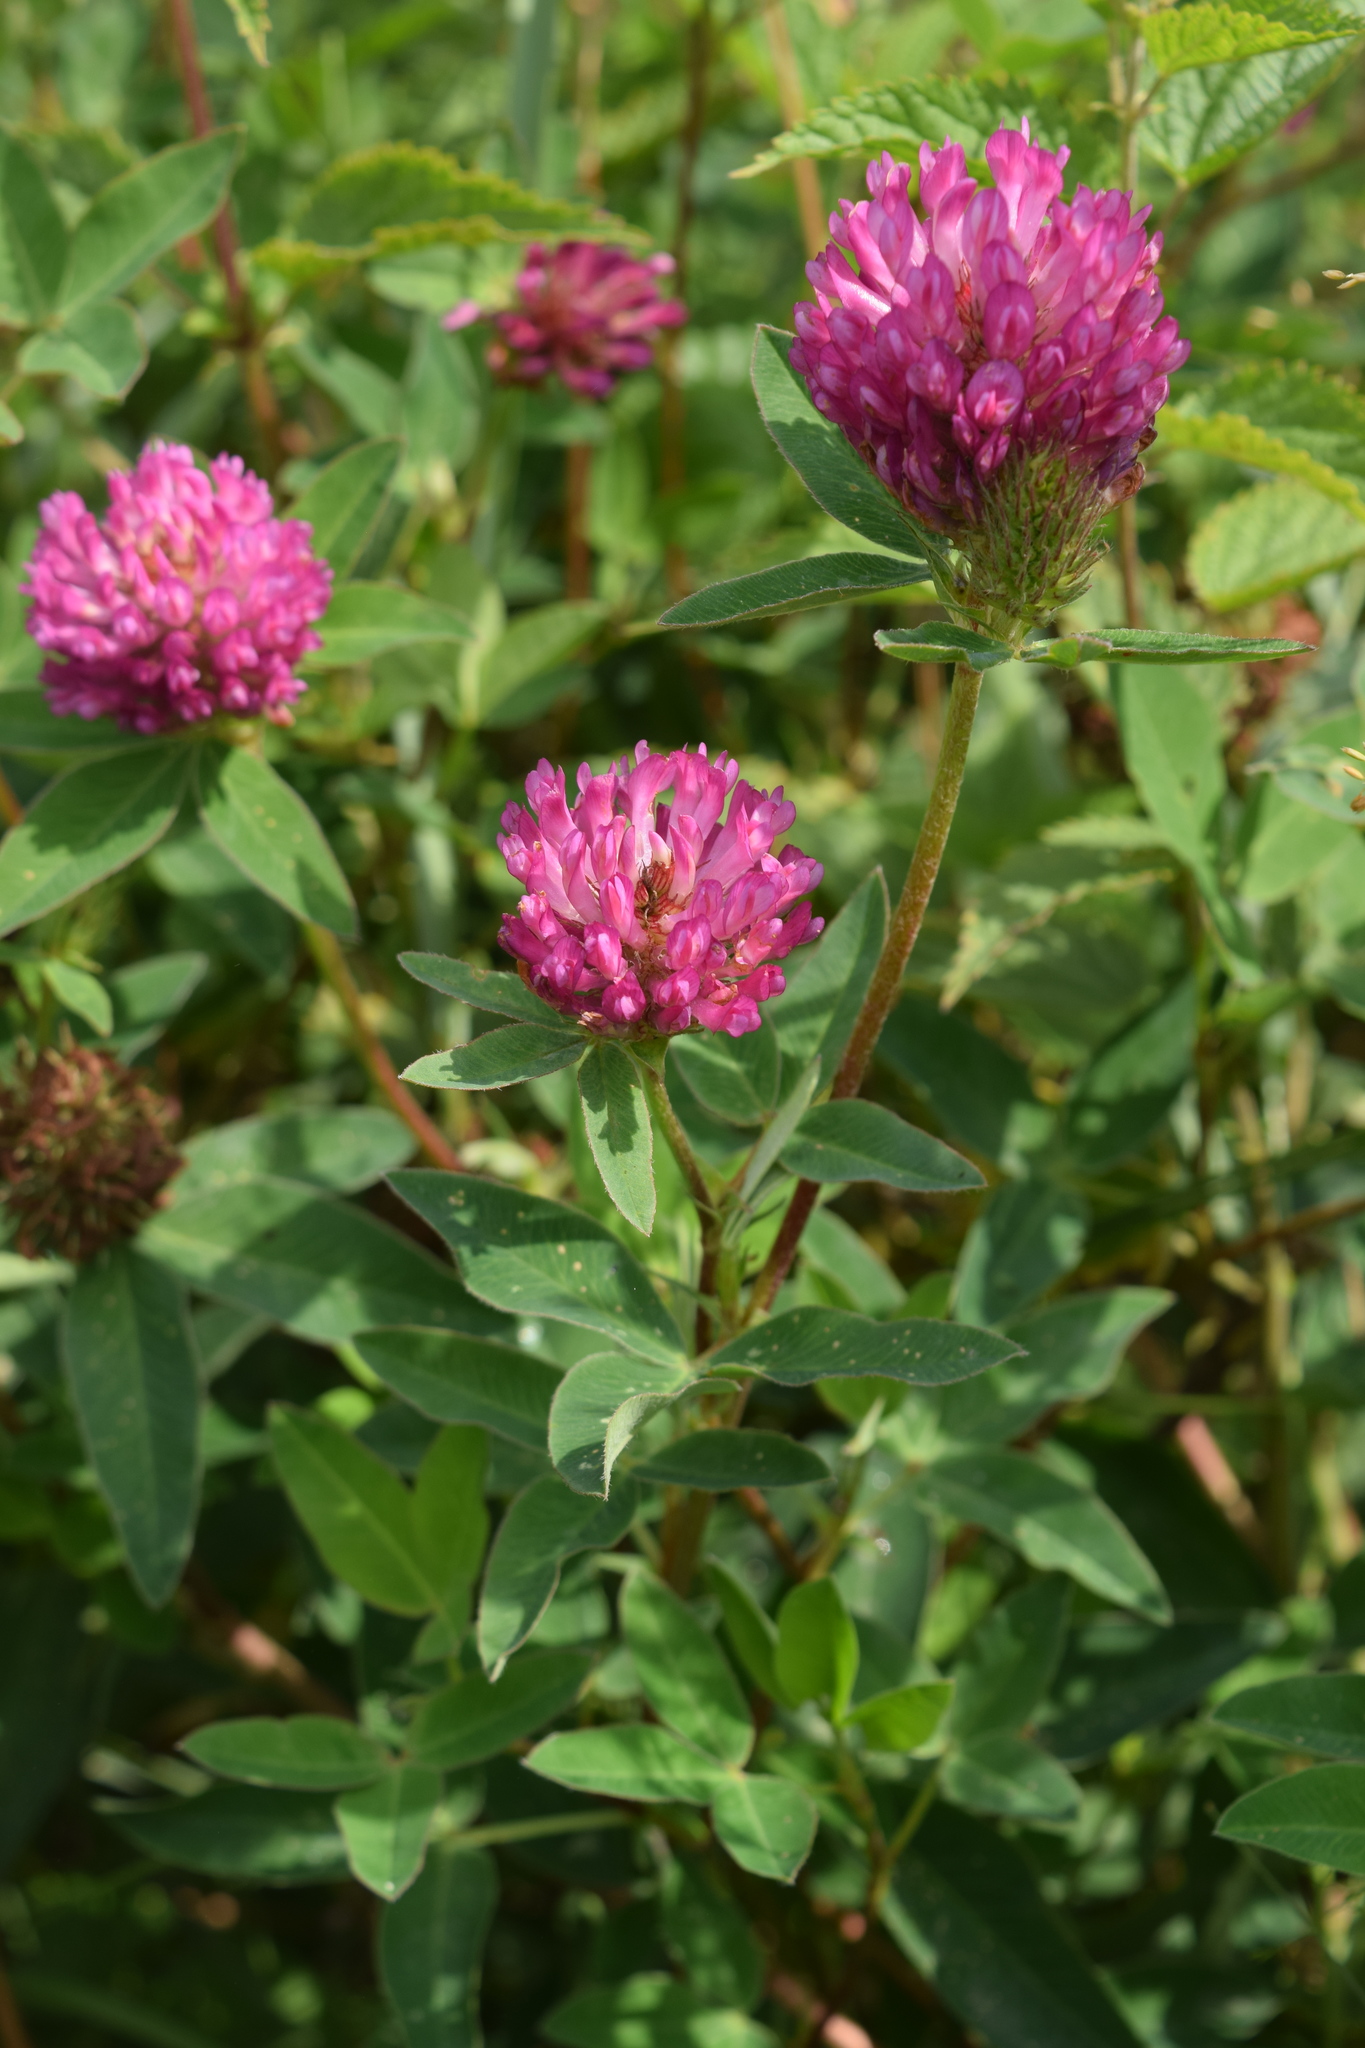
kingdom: Plantae
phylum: Tracheophyta
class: Magnoliopsida
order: Fabales
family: Fabaceae
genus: Trifolium
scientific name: Trifolium medium
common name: Zigzag clover
